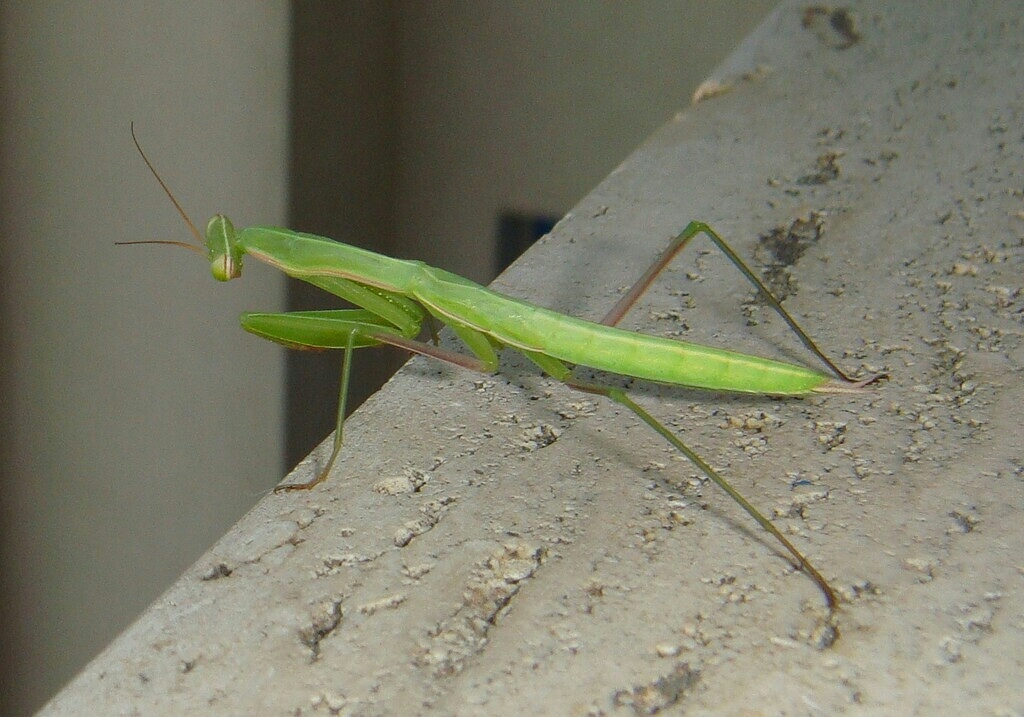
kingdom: Animalia
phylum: Arthropoda
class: Insecta
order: Mantodea
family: Mantidae
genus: Mantis
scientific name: Mantis religiosa
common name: Praying mantis
